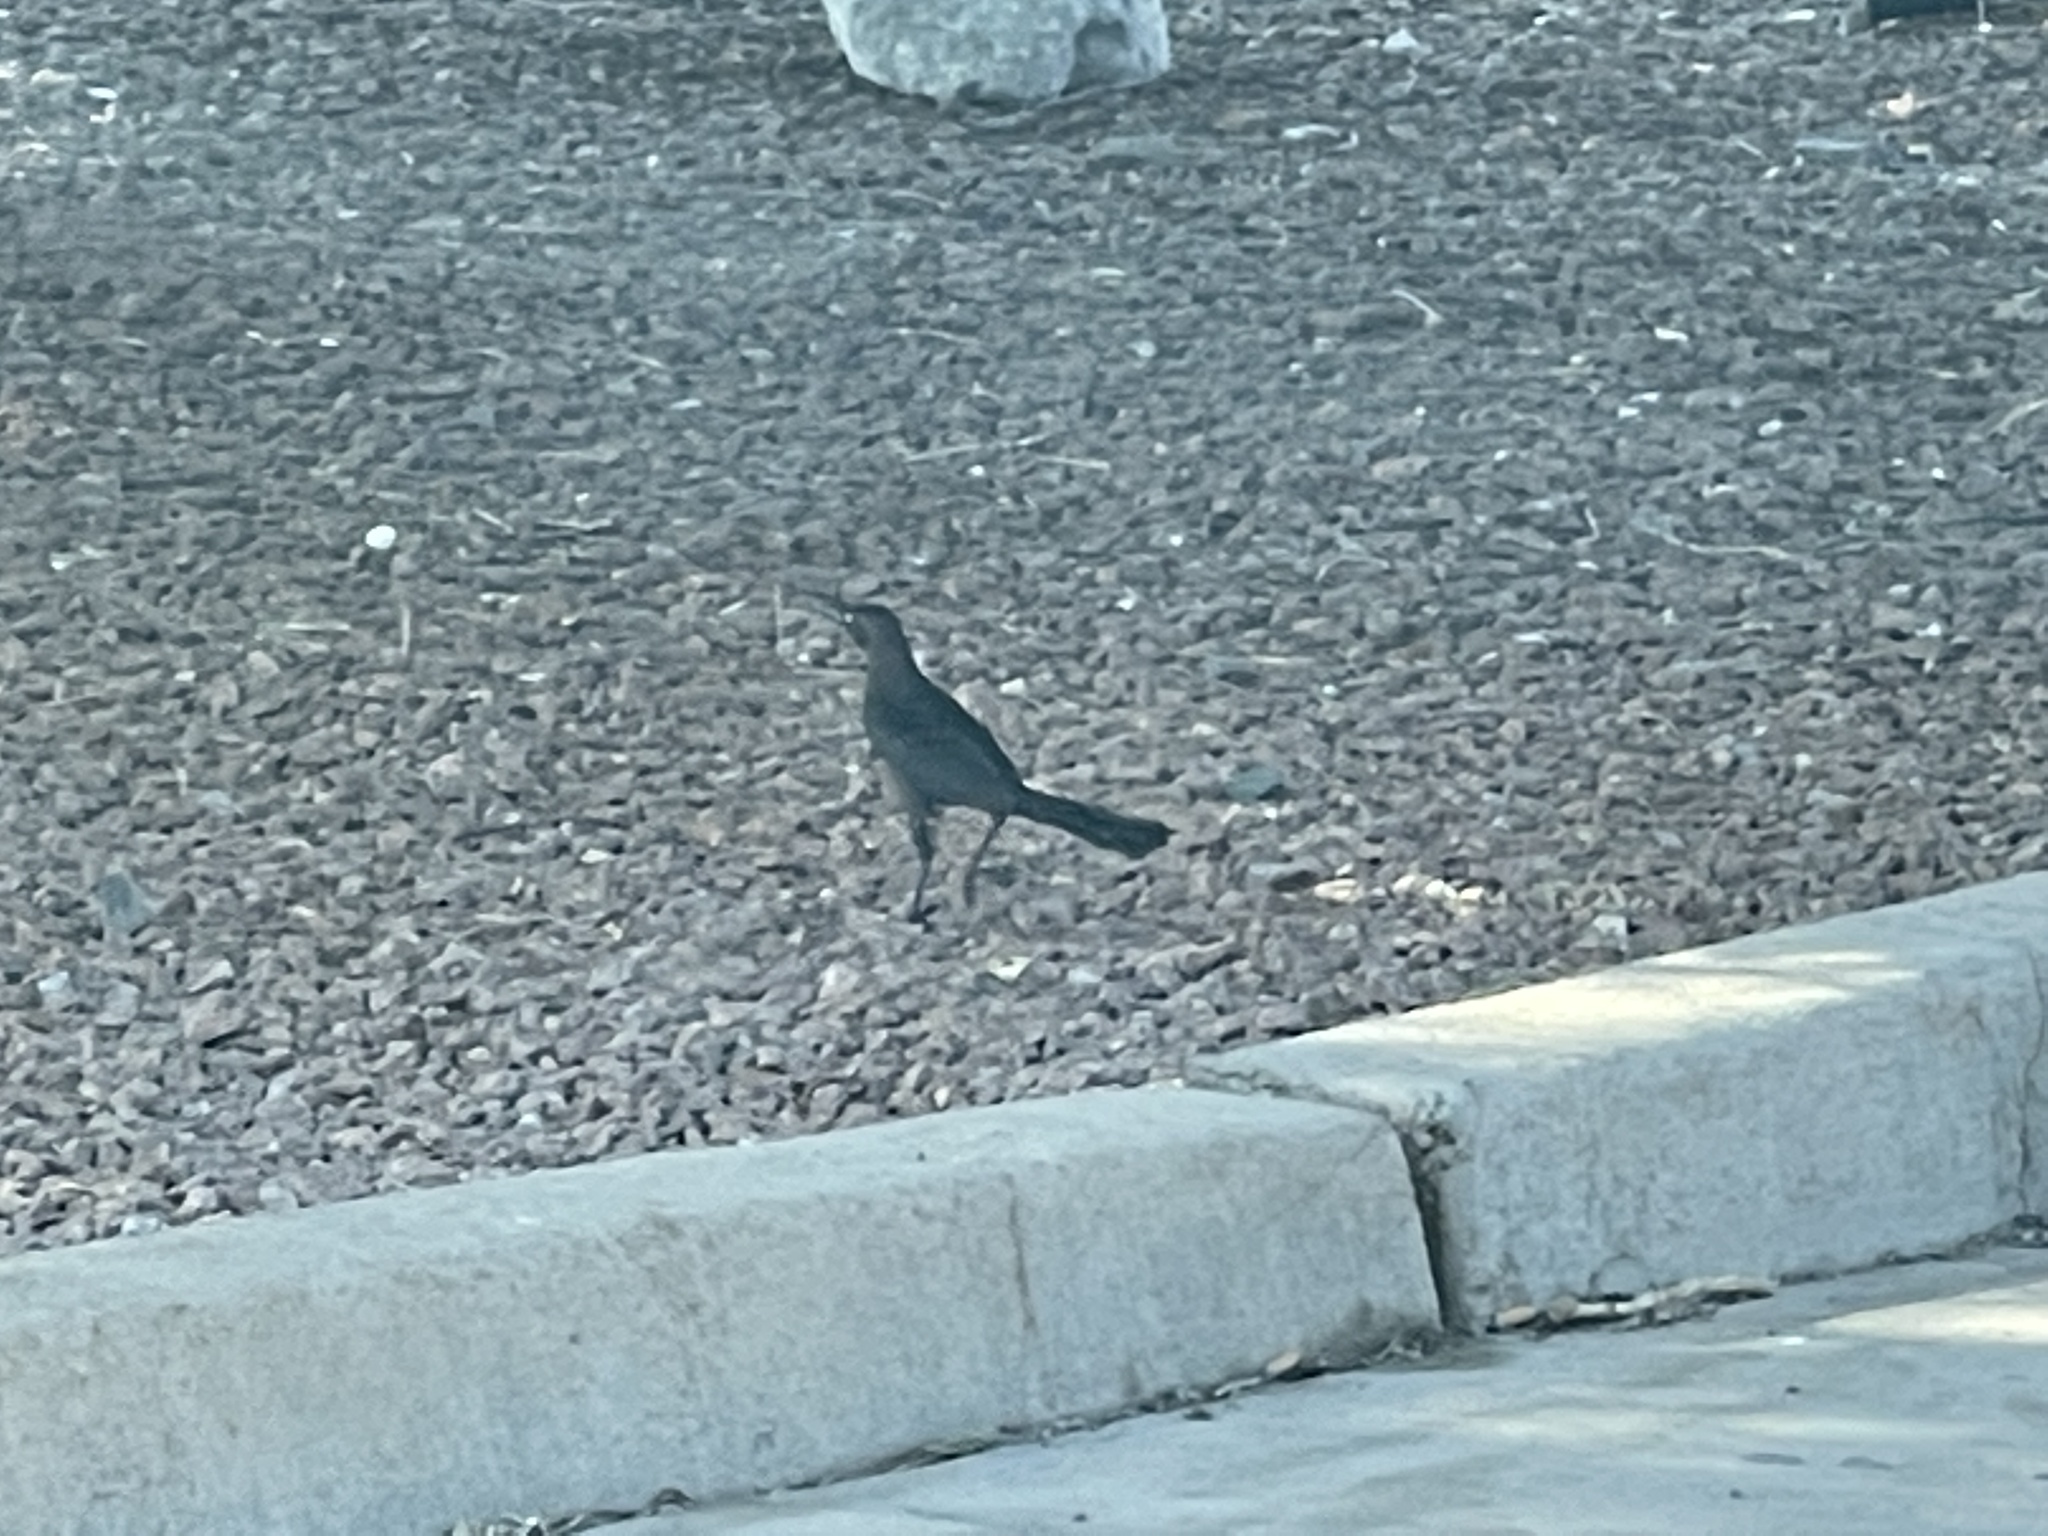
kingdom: Animalia
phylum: Chordata
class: Aves
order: Passeriformes
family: Icteridae
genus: Quiscalus
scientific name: Quiscalus mexicanus
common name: Great-tailed grackle
